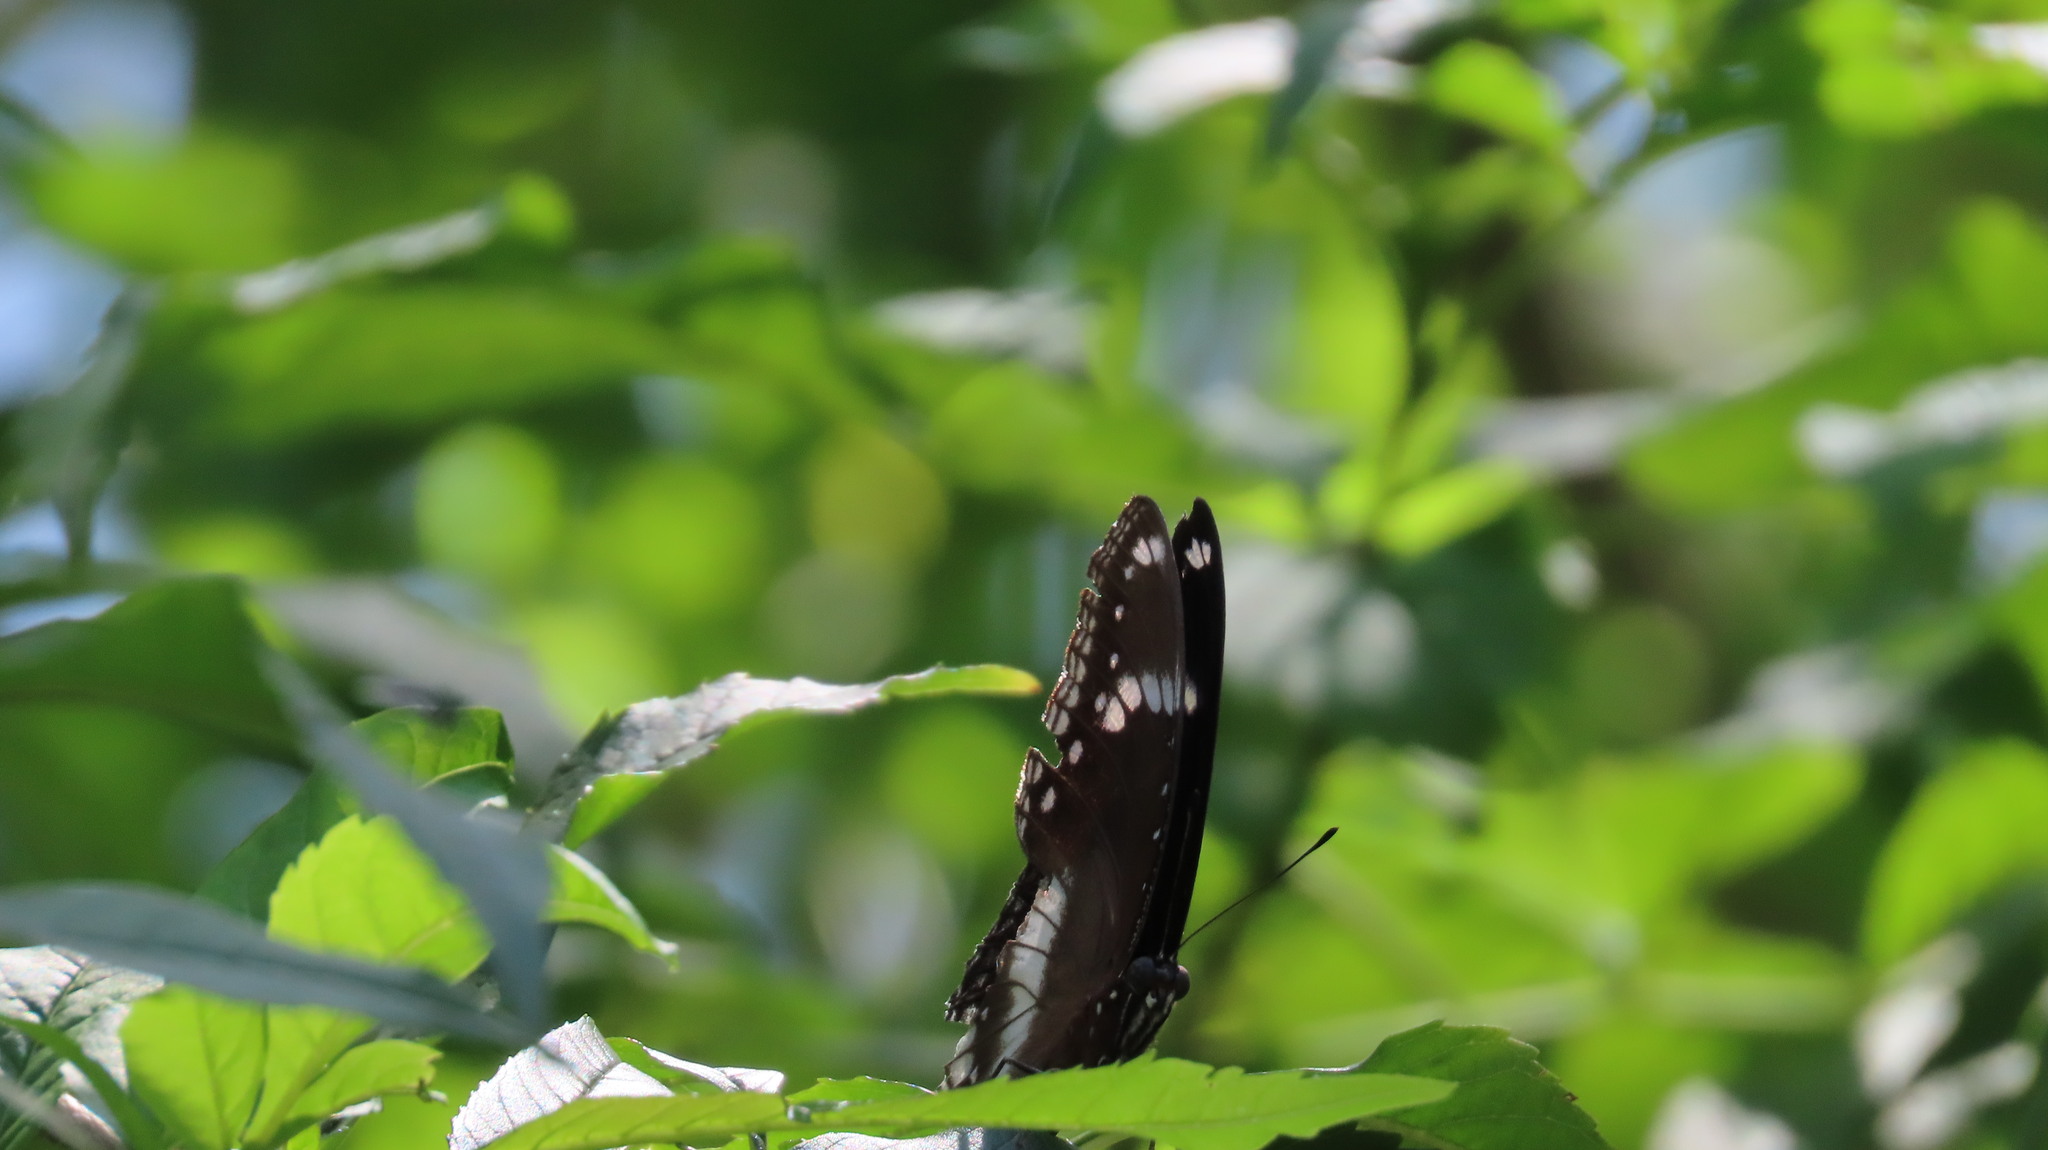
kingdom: Animalia
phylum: Arthropoda
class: Insecta
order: Lepidoptera
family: Nymphalidae
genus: Hypolimnas
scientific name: Hypolimnas bolina
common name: Great eggfly
